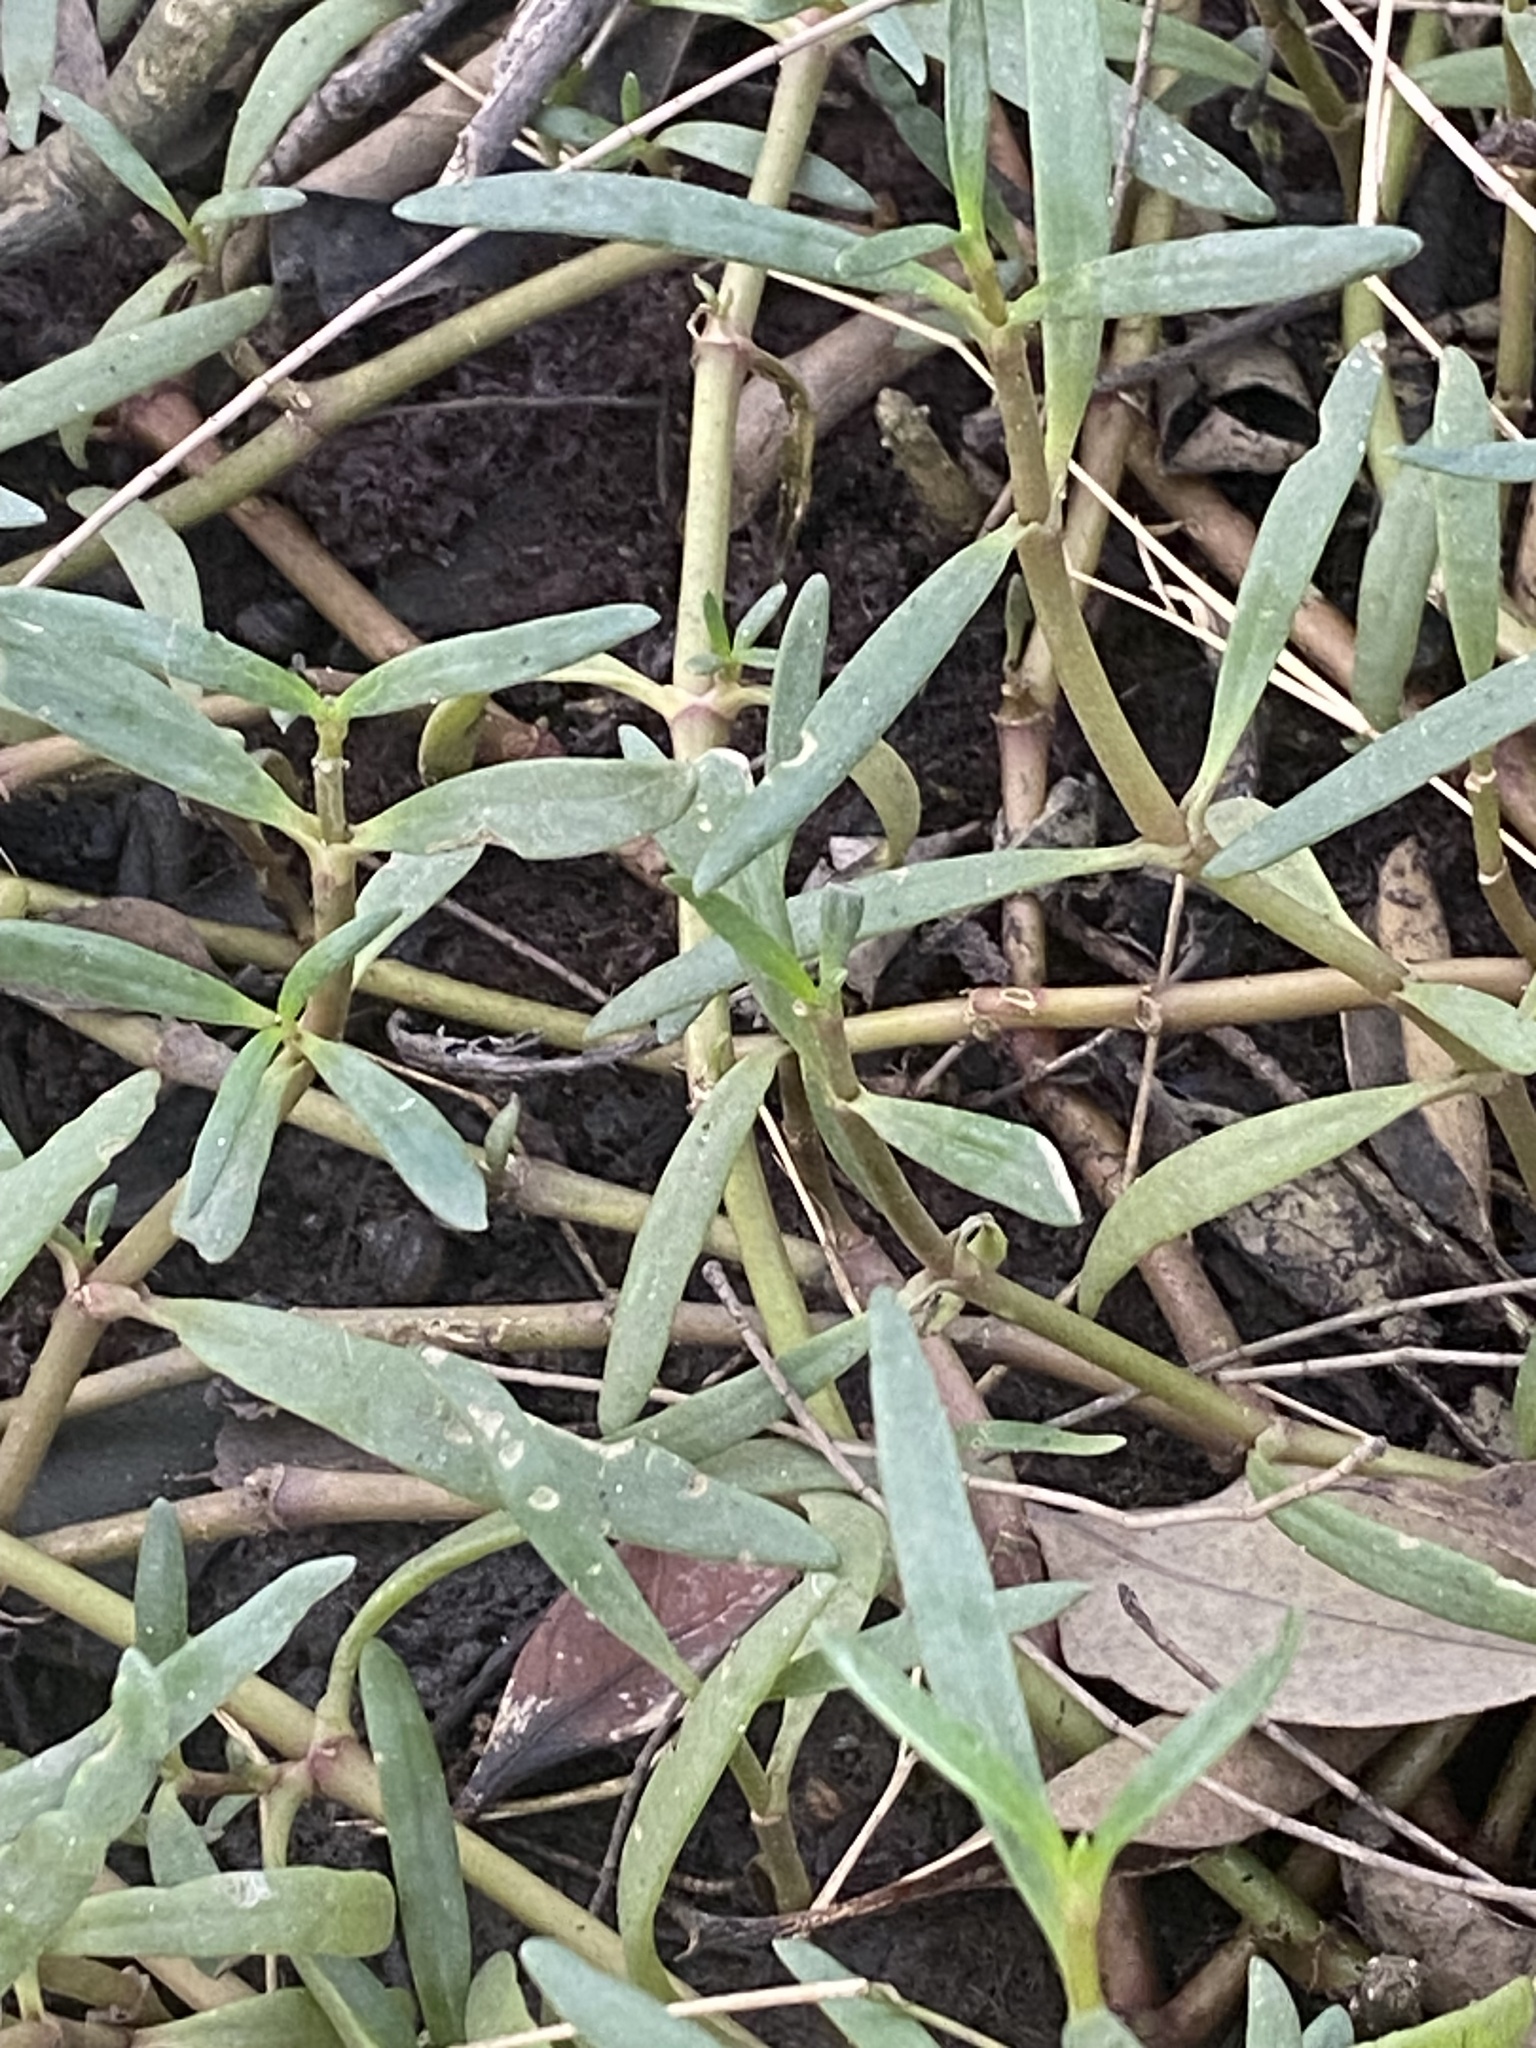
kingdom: Plantae
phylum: Tracheophyta
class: Magnoliopsida
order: Caryophyllales
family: Aizoaceae
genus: Sesuvium
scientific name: Sesuvium portulacastrum
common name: Sea-purslane
